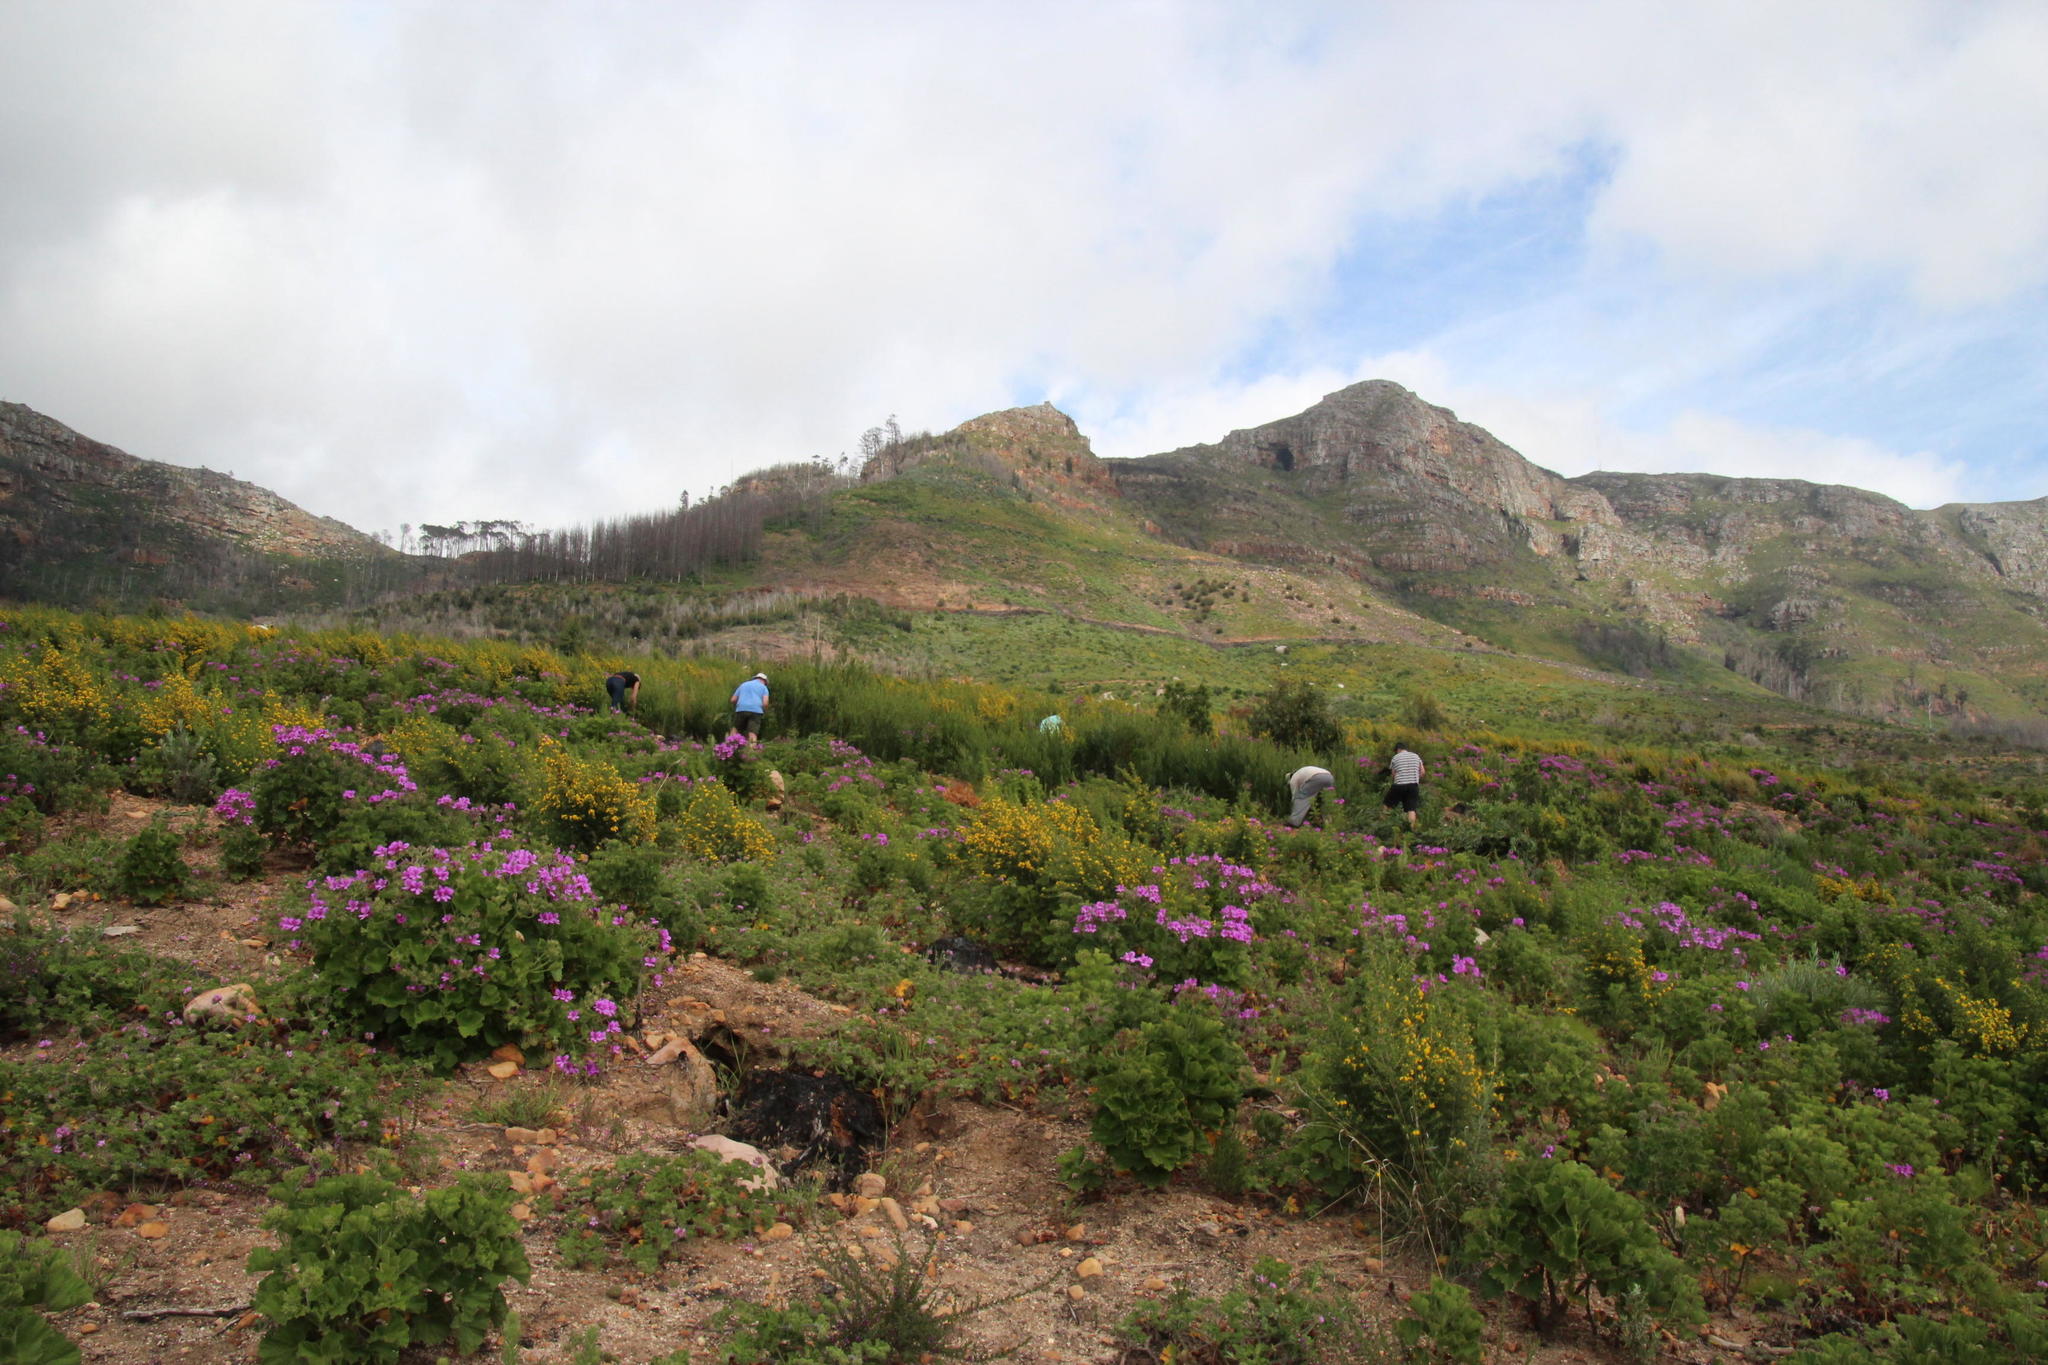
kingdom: Plantae
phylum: Tracheophyta
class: Magnoliopsida
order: Geraniales
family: Geraniaceae
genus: Pelargonium
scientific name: Pelargonium cucullatum
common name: Tree pelargonium
